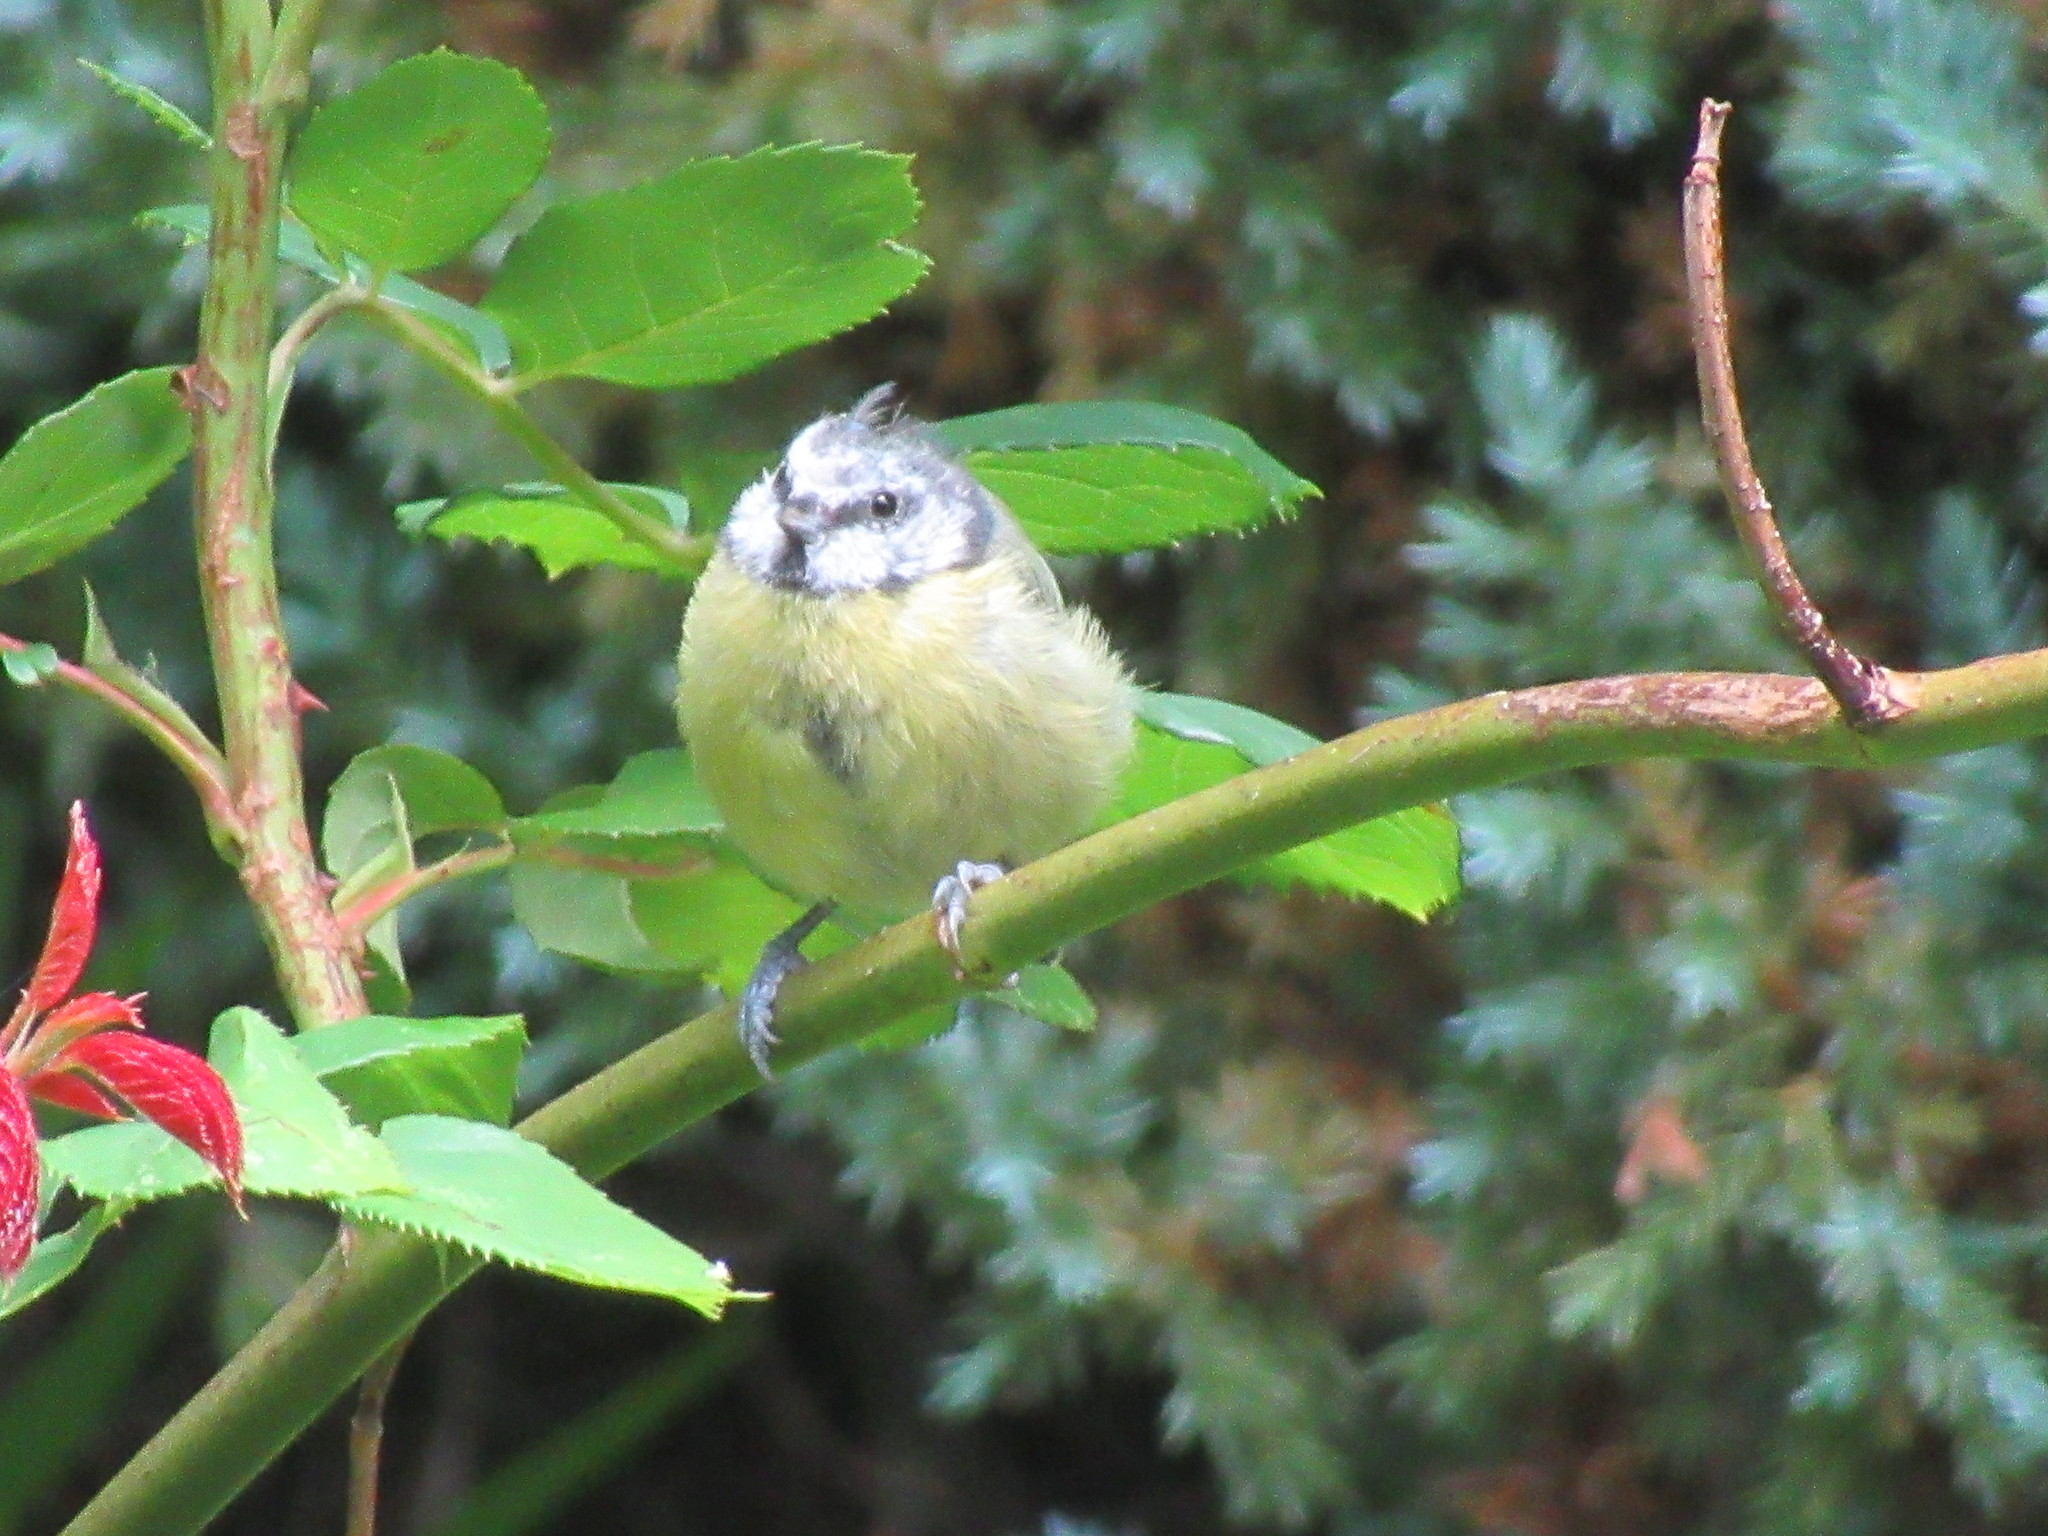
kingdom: Animalia
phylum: Chordata
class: Aves
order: Passeriformes
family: Paridae
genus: Cyanistes
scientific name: Cyanistes caeruleus
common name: Eurasian blue tit
